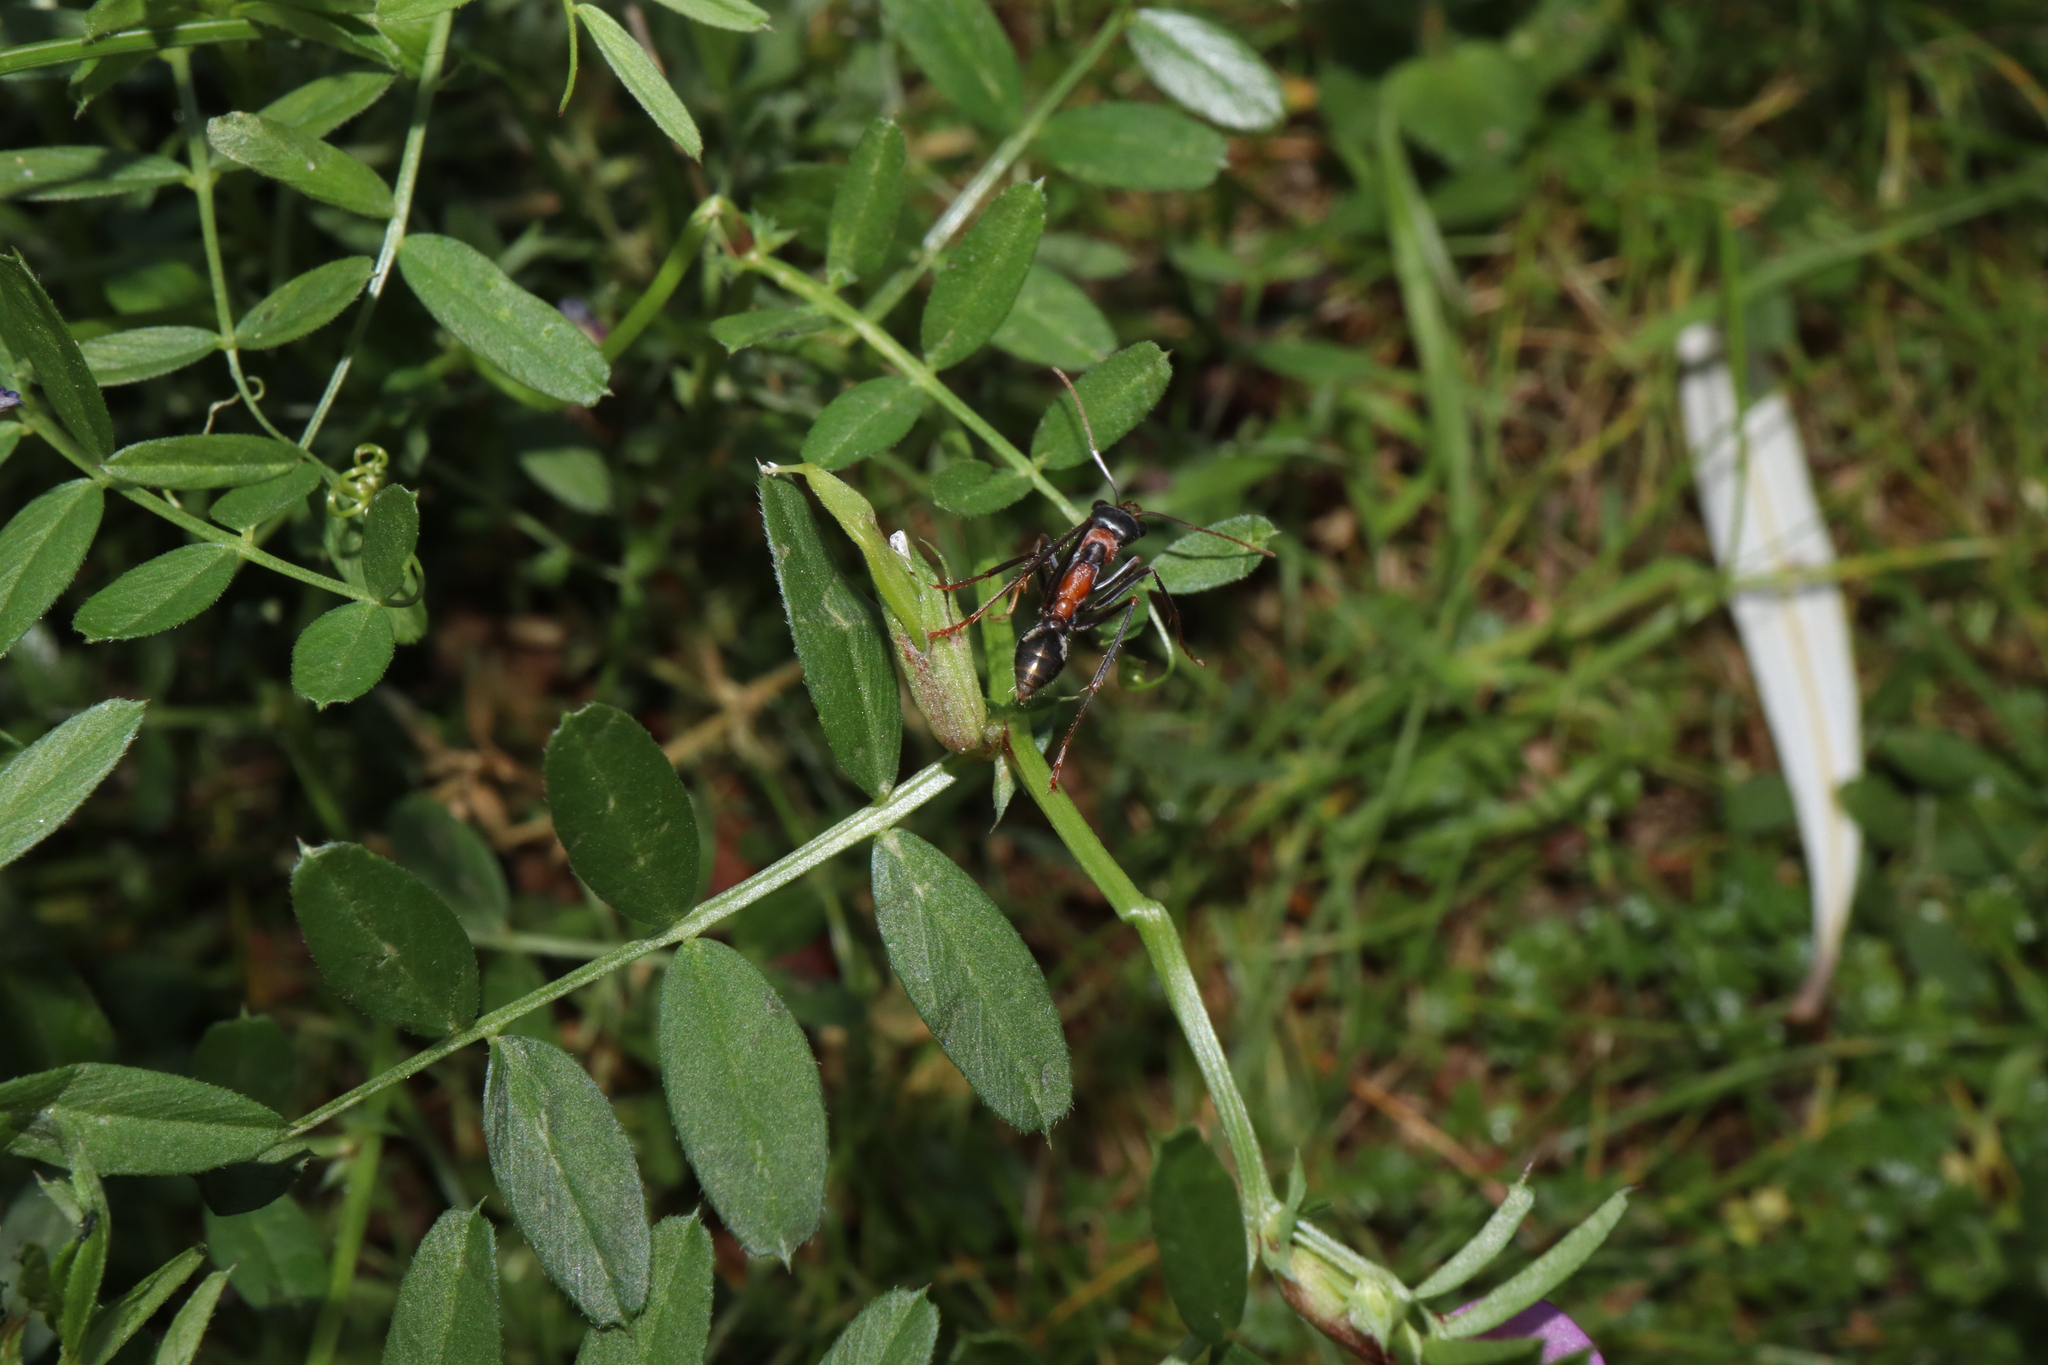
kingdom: Animalia
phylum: Arthropoda
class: Insecta
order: Hymenoptera
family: Formicidae
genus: Myrmecia
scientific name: Myrmecia nigrocincta
